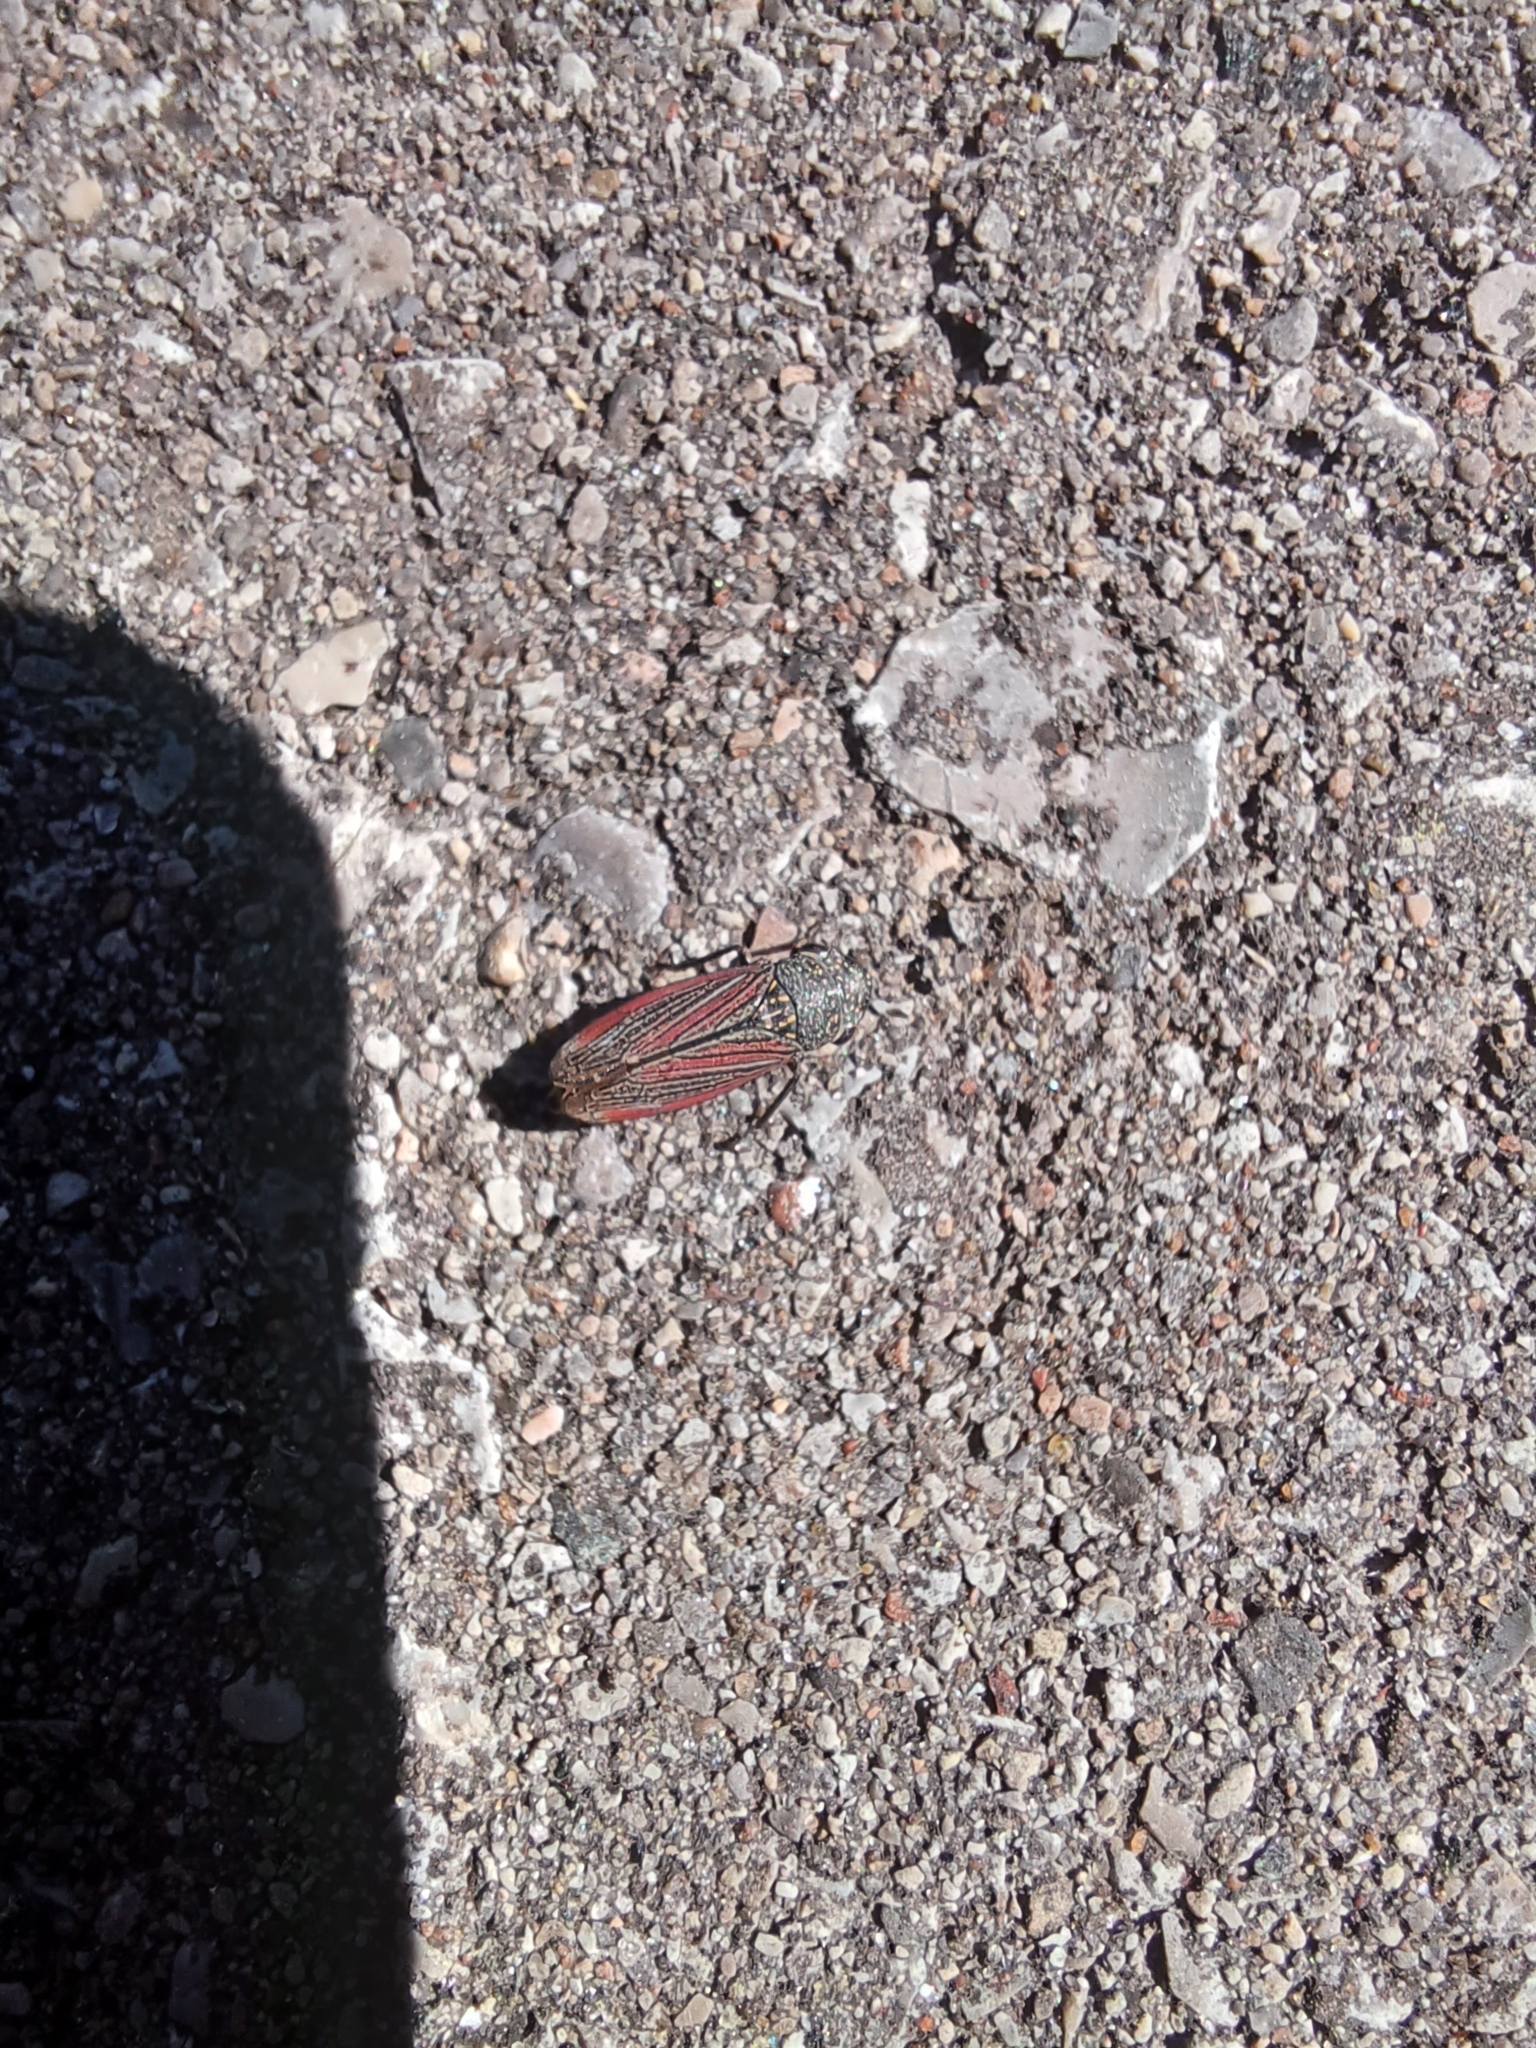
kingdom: Animalia
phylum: Arthropoda
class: Insecta
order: Hemiptera
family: Cicadellidae
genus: Cuerna
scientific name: Cuerna striata
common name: Striped leafhopper
